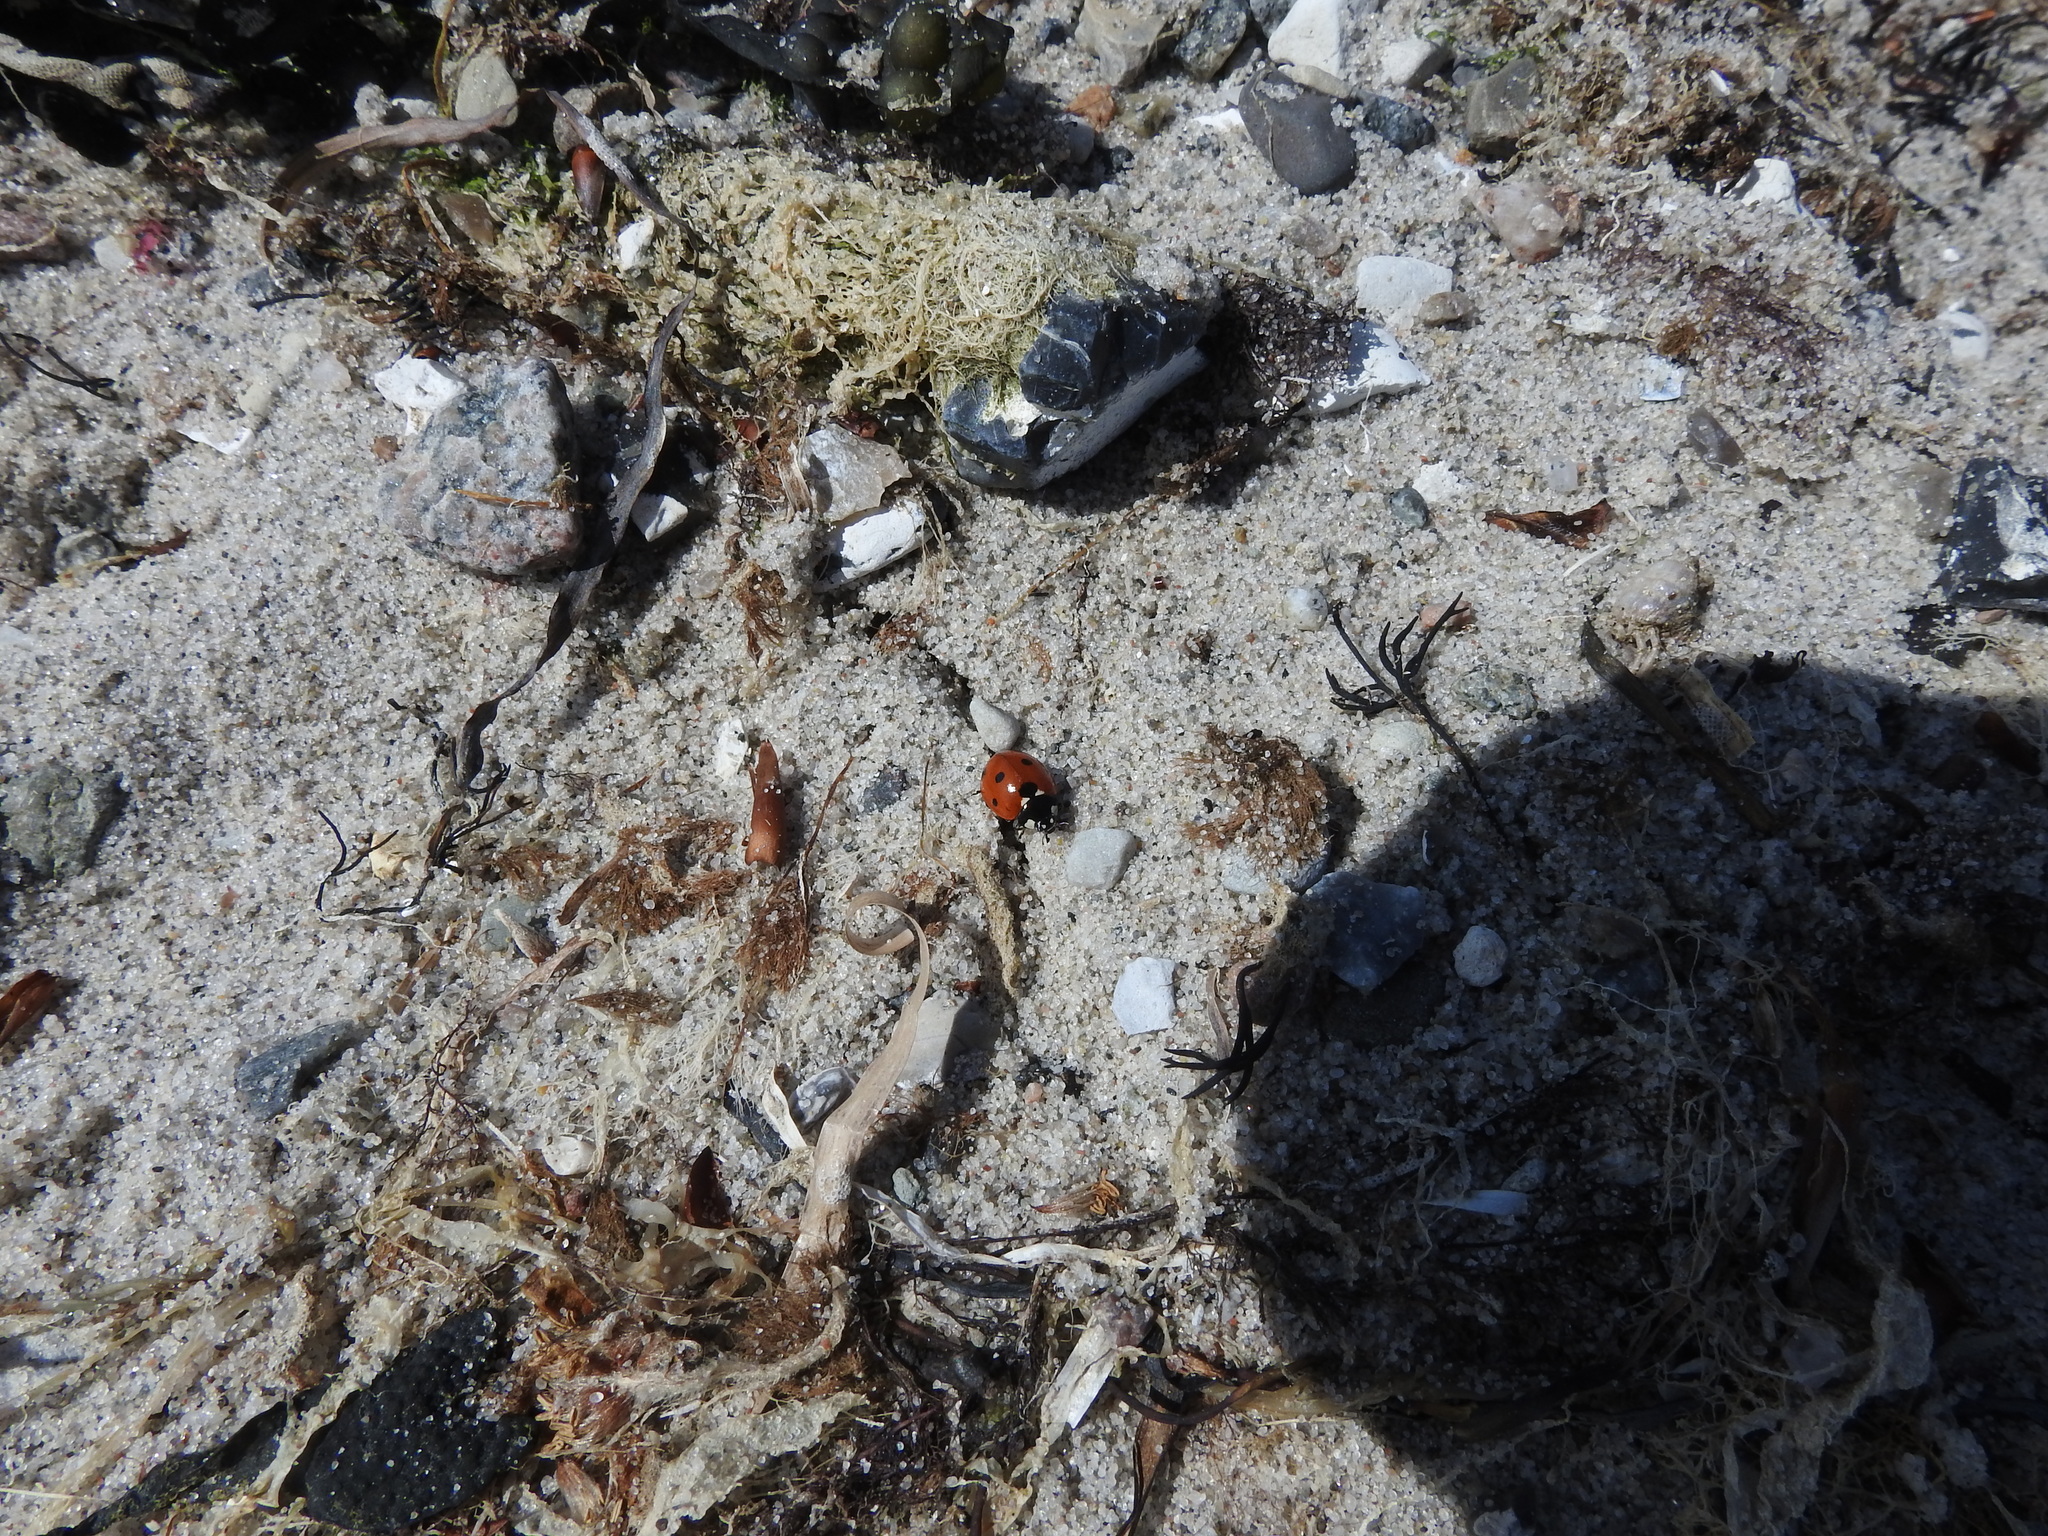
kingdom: Animalia
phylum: Arthropoda
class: Insecta
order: Coleoptera
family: Coccinellidae
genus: Coccinella
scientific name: Coccinella septempunctata
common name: Sevenspotted lady beetle
